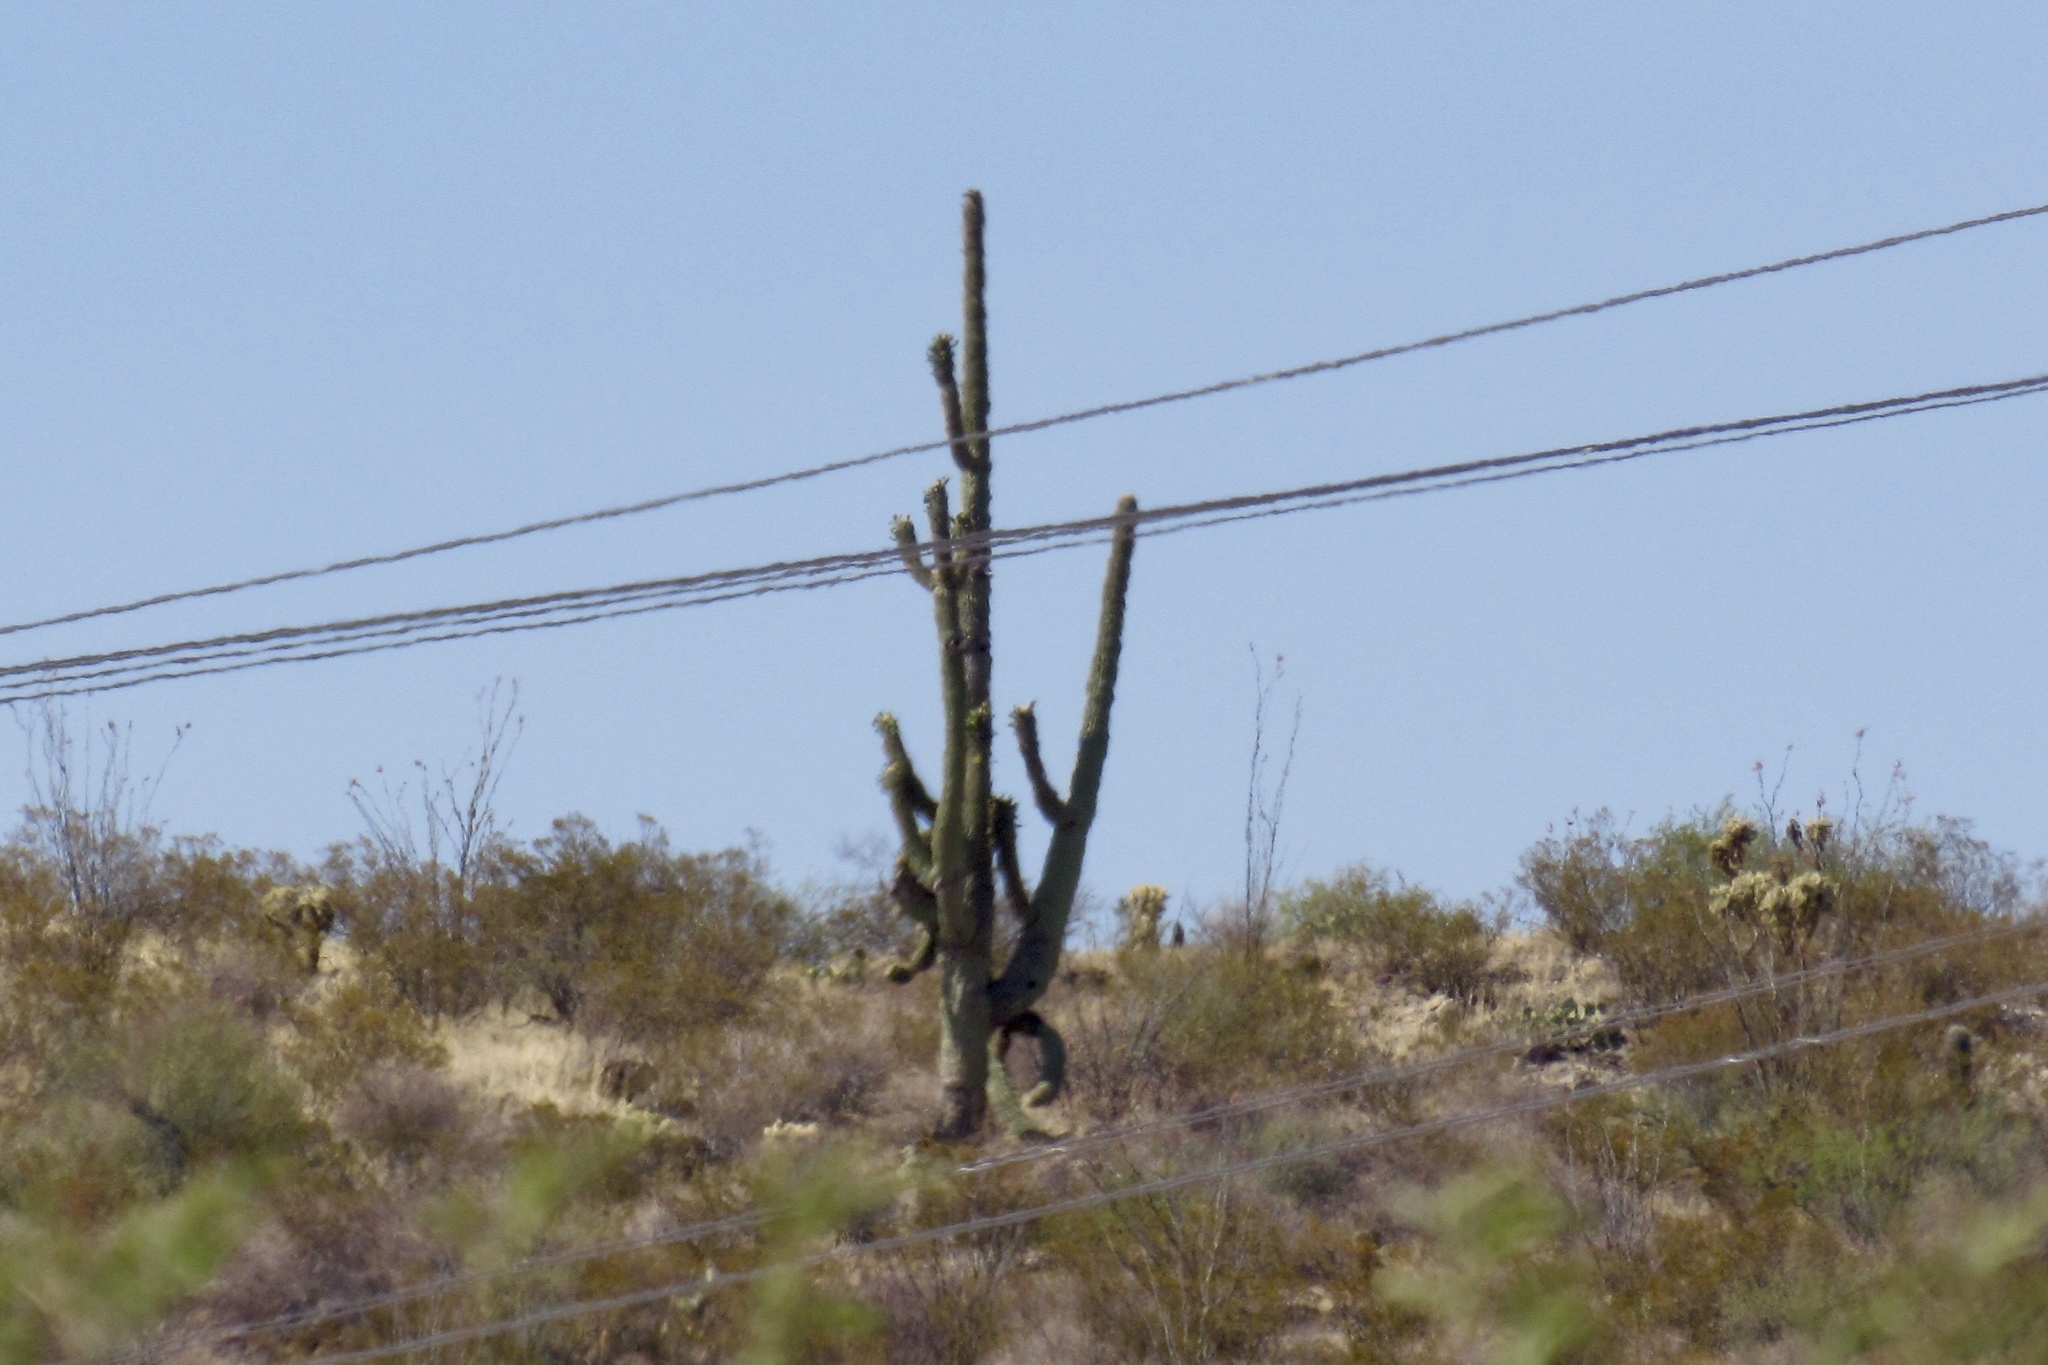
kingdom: Plantae
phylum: Tracheophyta
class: Magnoliopsida
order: Caryophyllales
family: Cactaceae
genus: Carnegiea
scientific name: Carnegiea gigantea
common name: Saguaro
